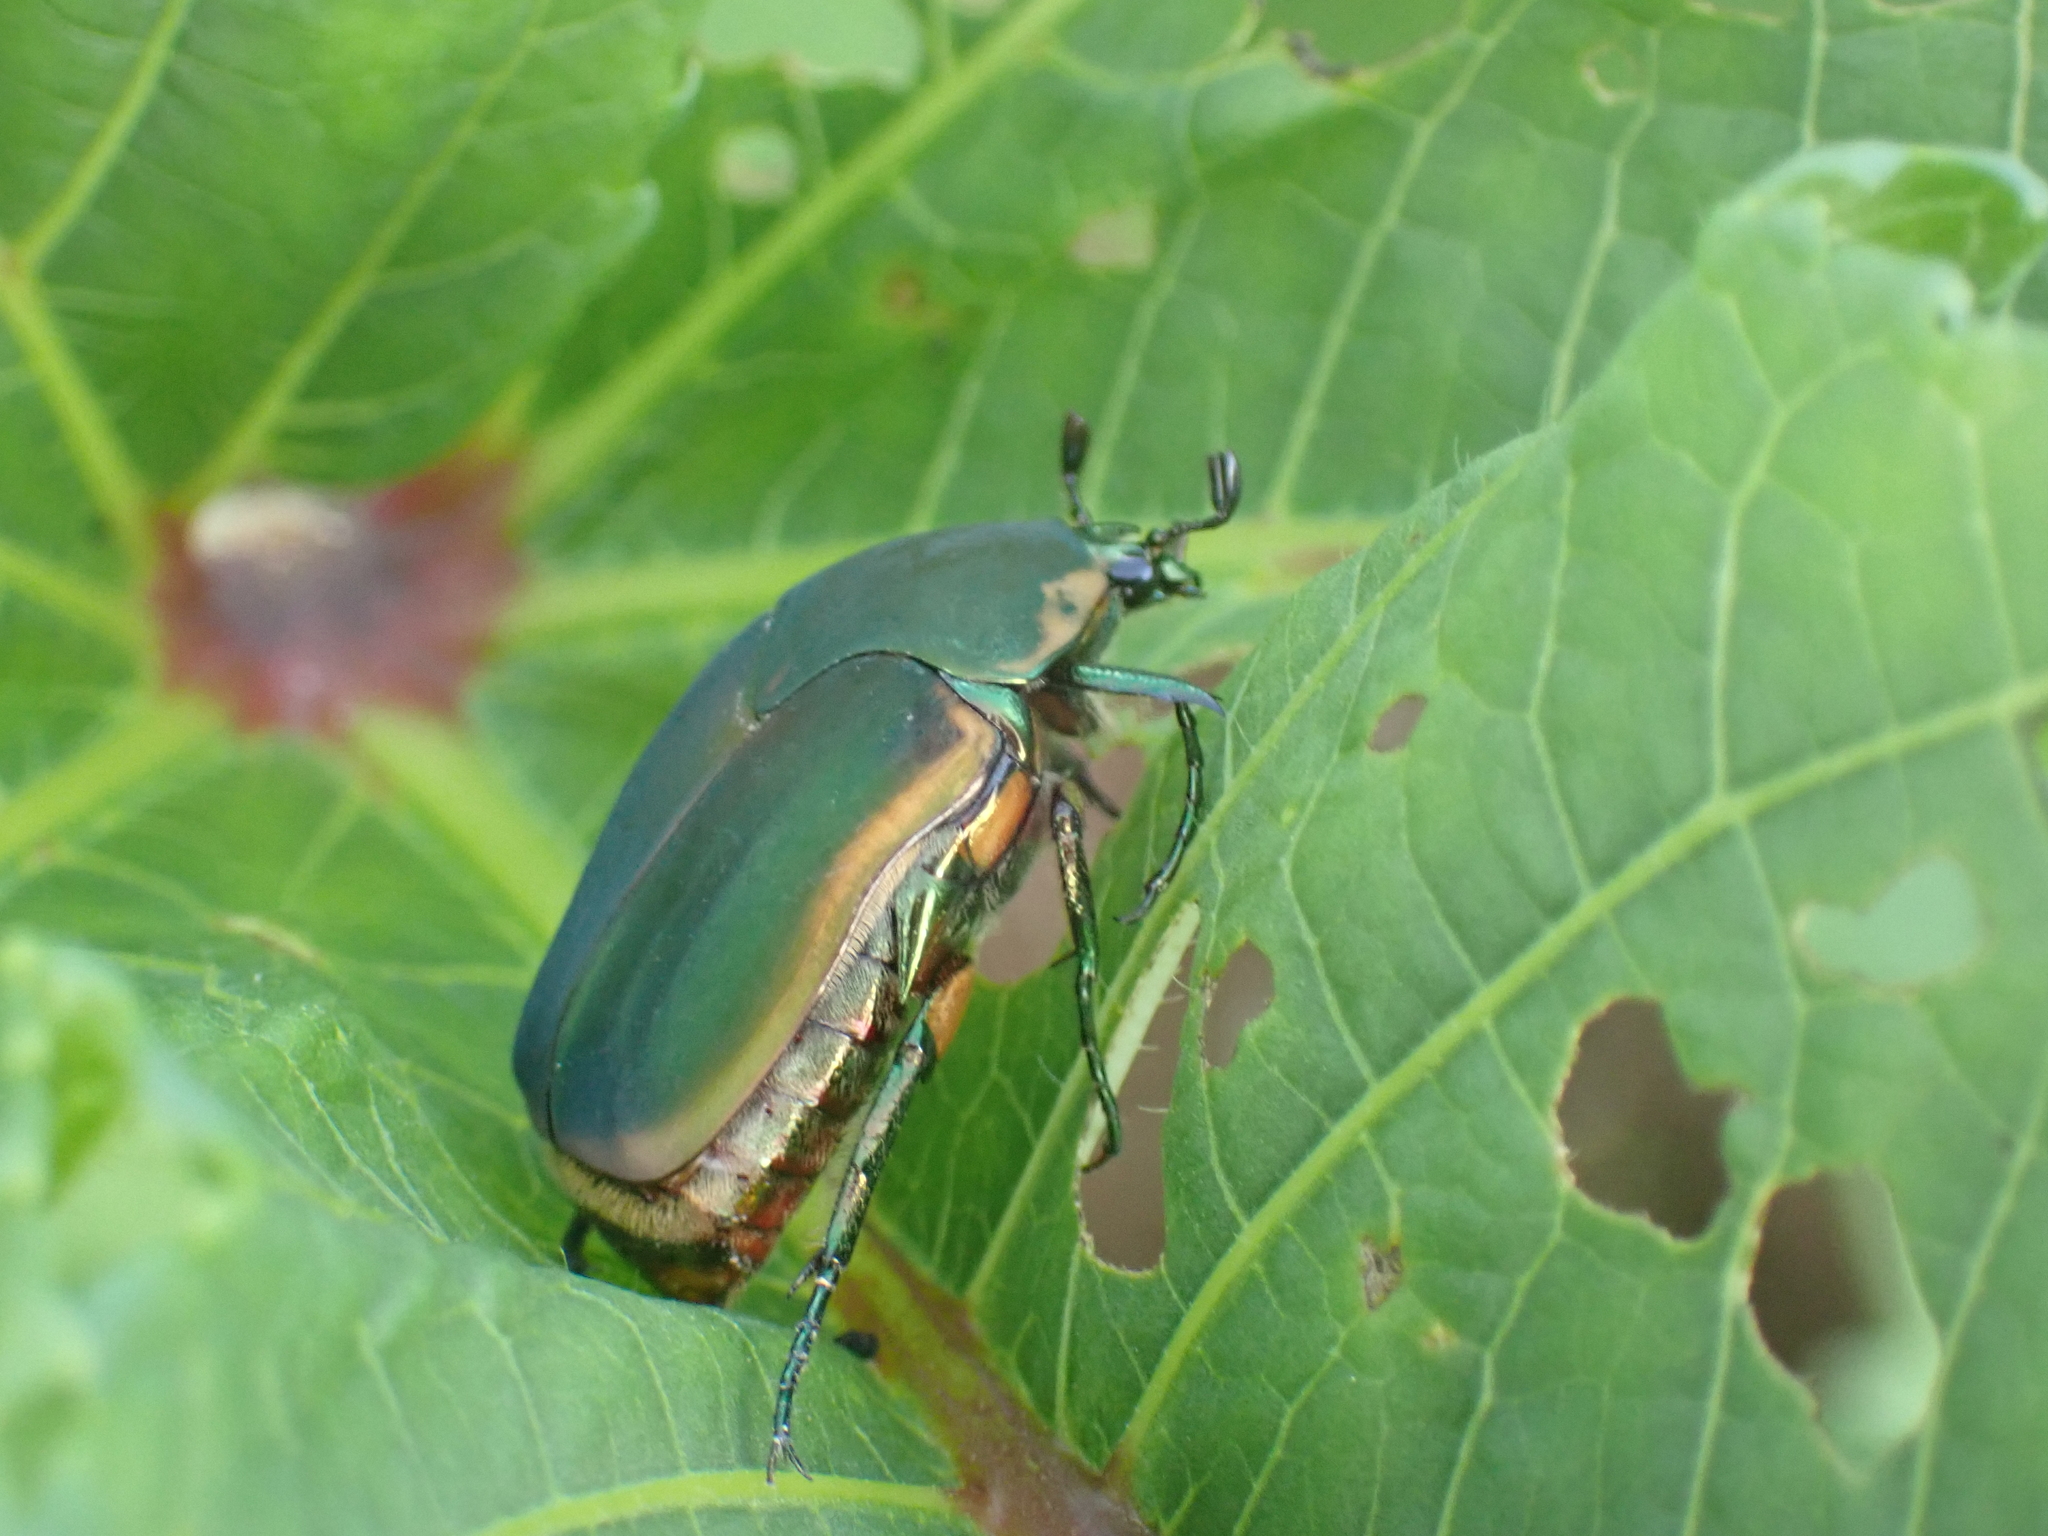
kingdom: Animalia
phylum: Arthropoda
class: Insecta
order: Coleoptera
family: Scarabaeidae
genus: Cotinis
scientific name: Cotinis nitida
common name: Common green june beetle
